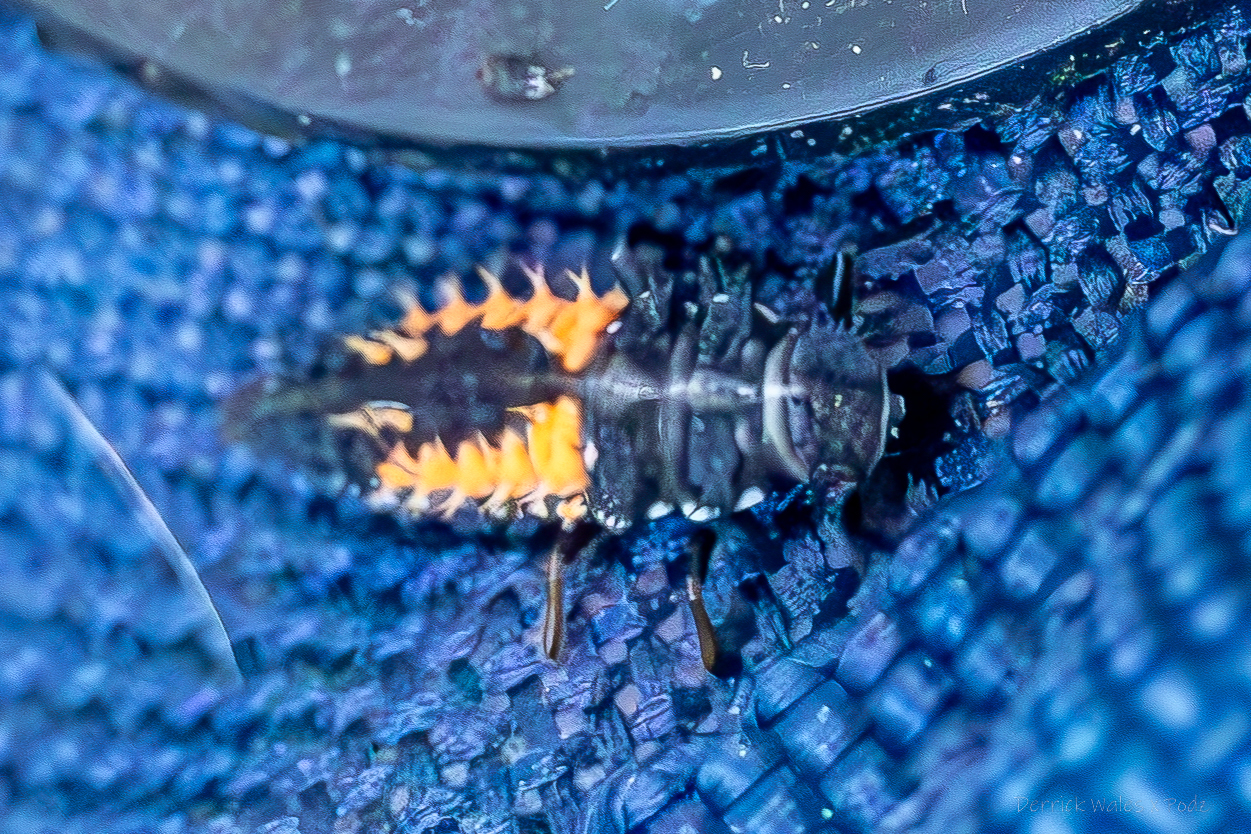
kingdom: Animalia
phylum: Arthropoda
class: Insecta
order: Coleoptera
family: Coccinellidae
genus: Harmonia
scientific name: Harmonia axyridis
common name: Harlequin ladybird
